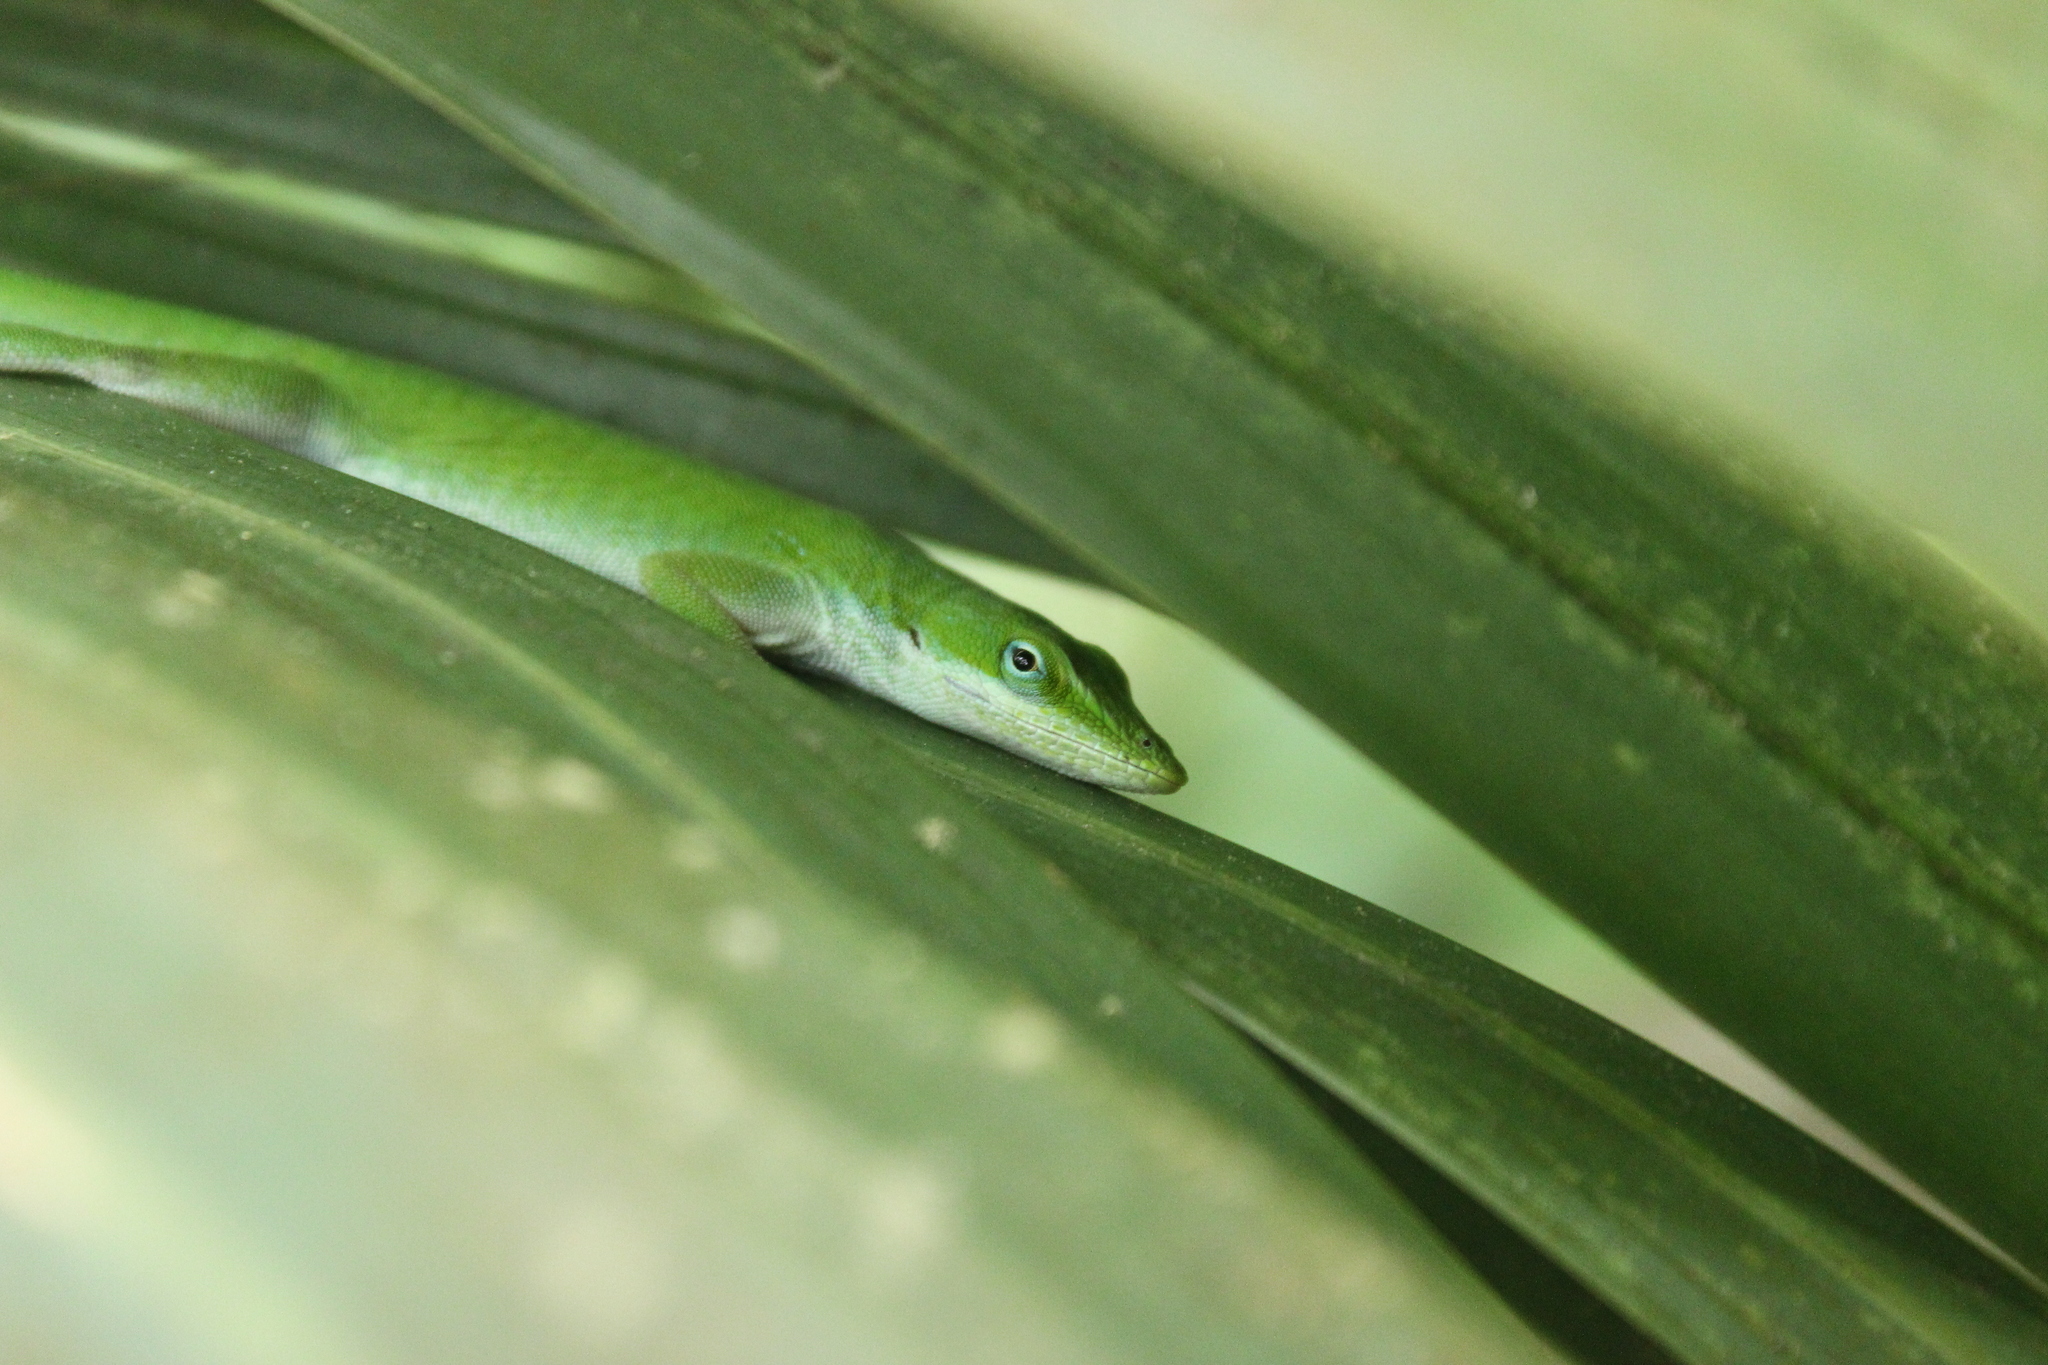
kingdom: Animalia
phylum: Chordata
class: Squamata
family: Dactyloidae
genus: Anolis
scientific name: Anolis carolinensis
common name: Green anole
